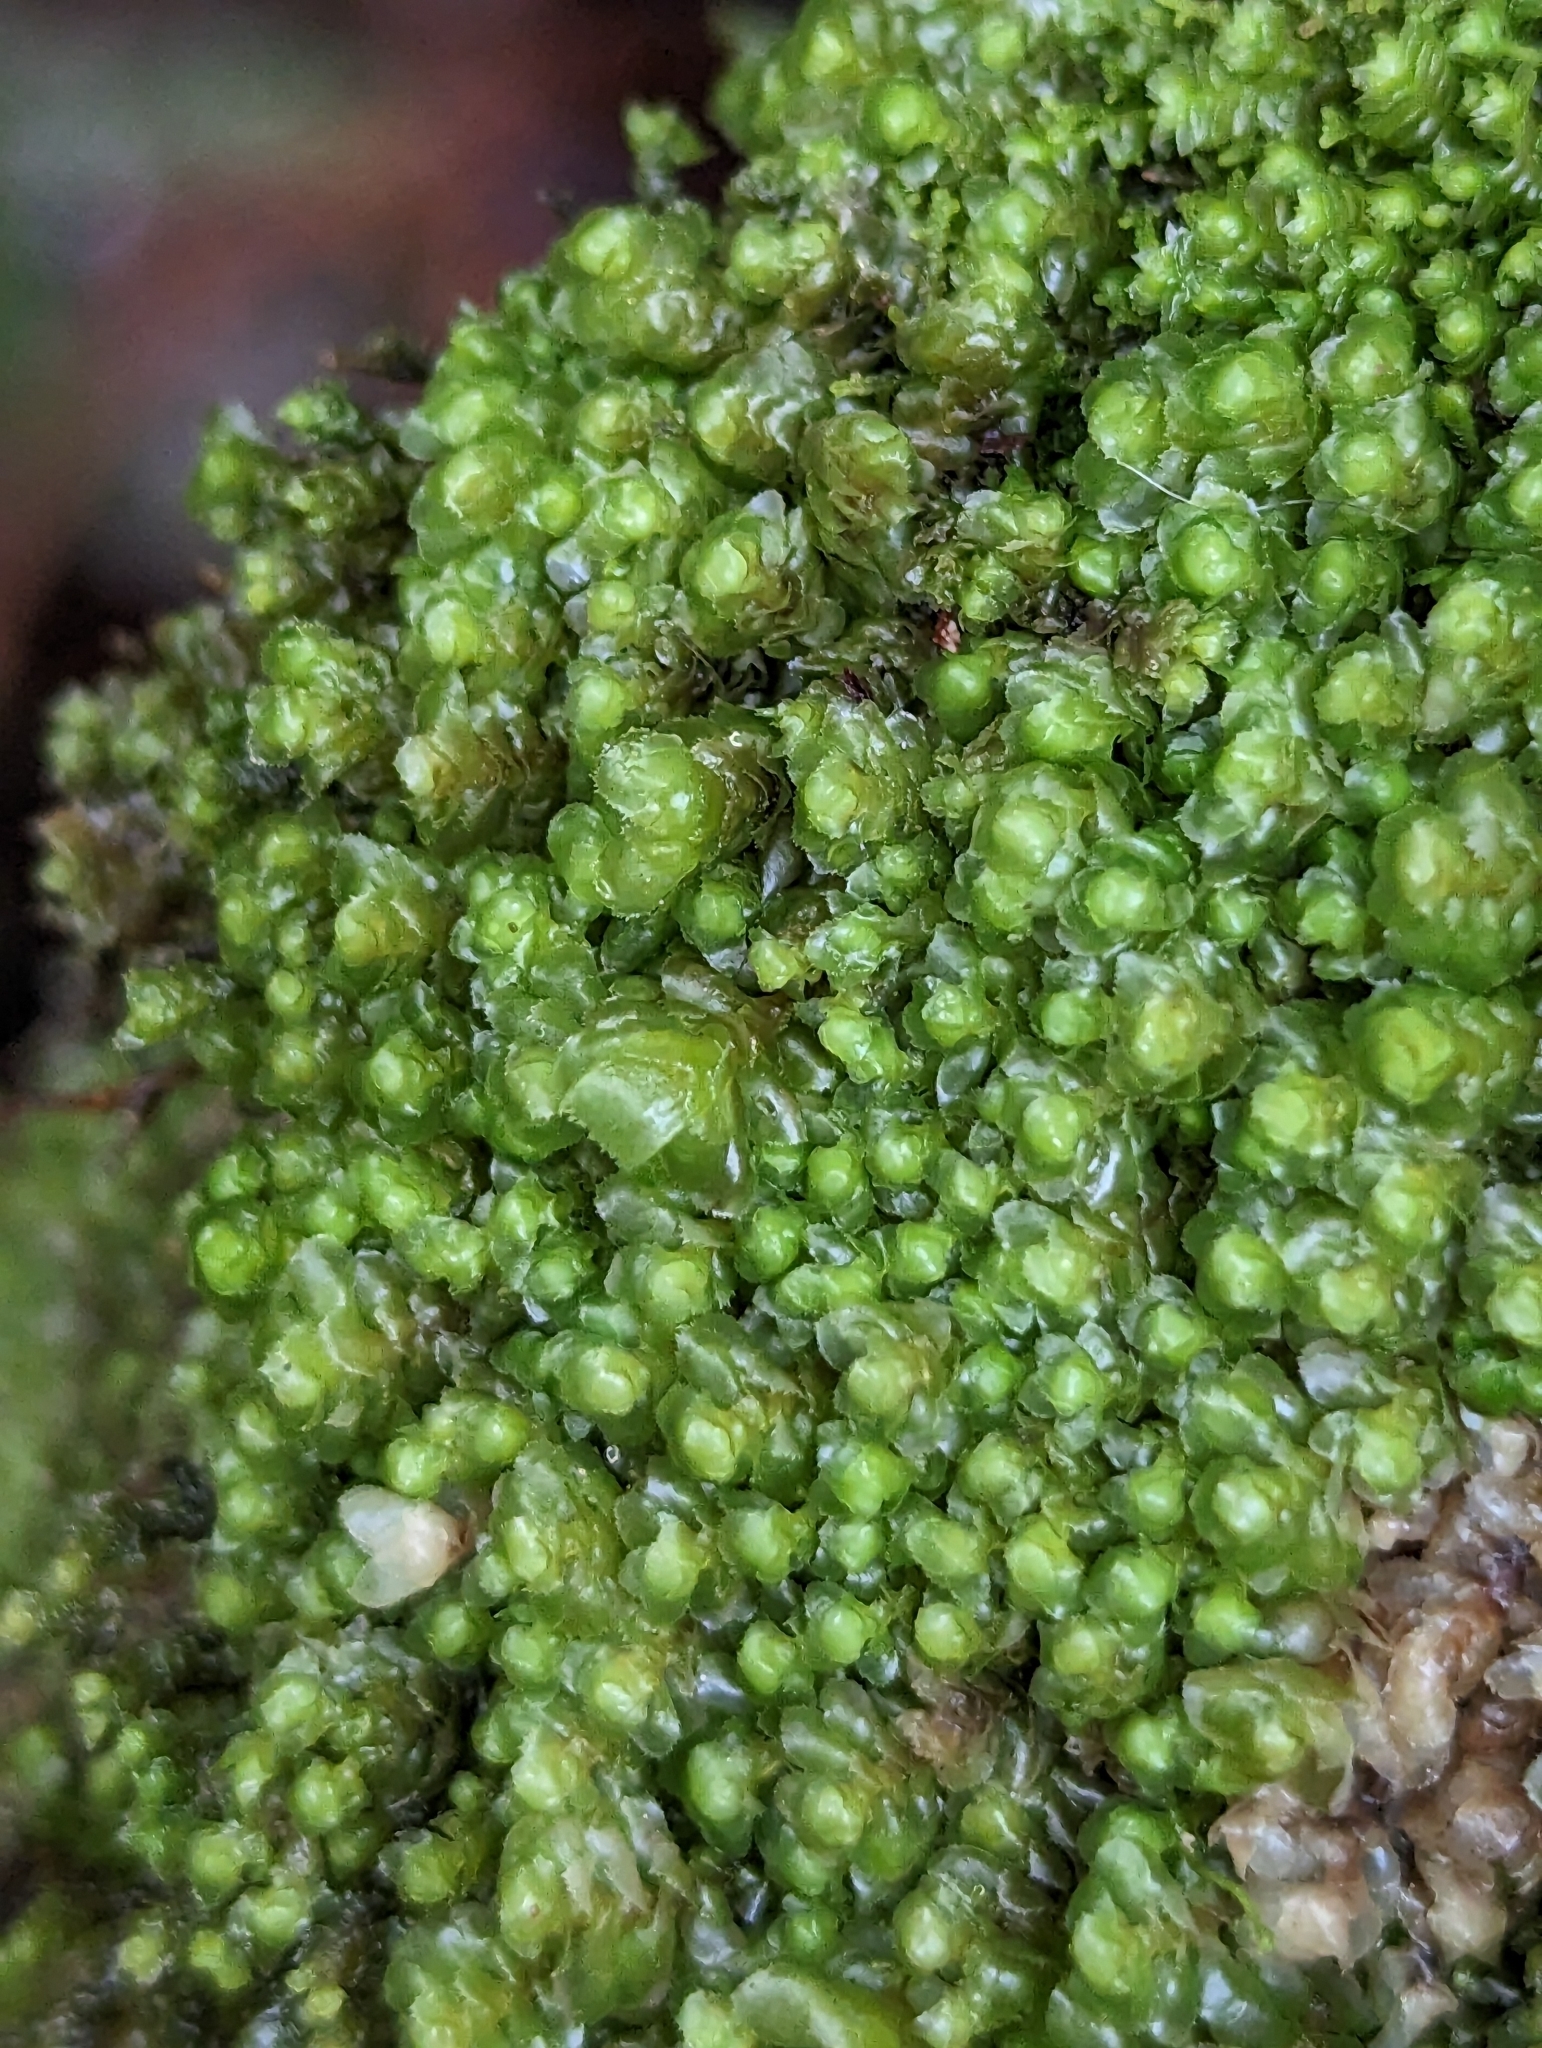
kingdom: Plantae
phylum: Marchantiophyta
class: Jungermanniopsida
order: Jungermanniales
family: Scapaniaceae
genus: Scapania
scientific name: Scapania bolanderi
